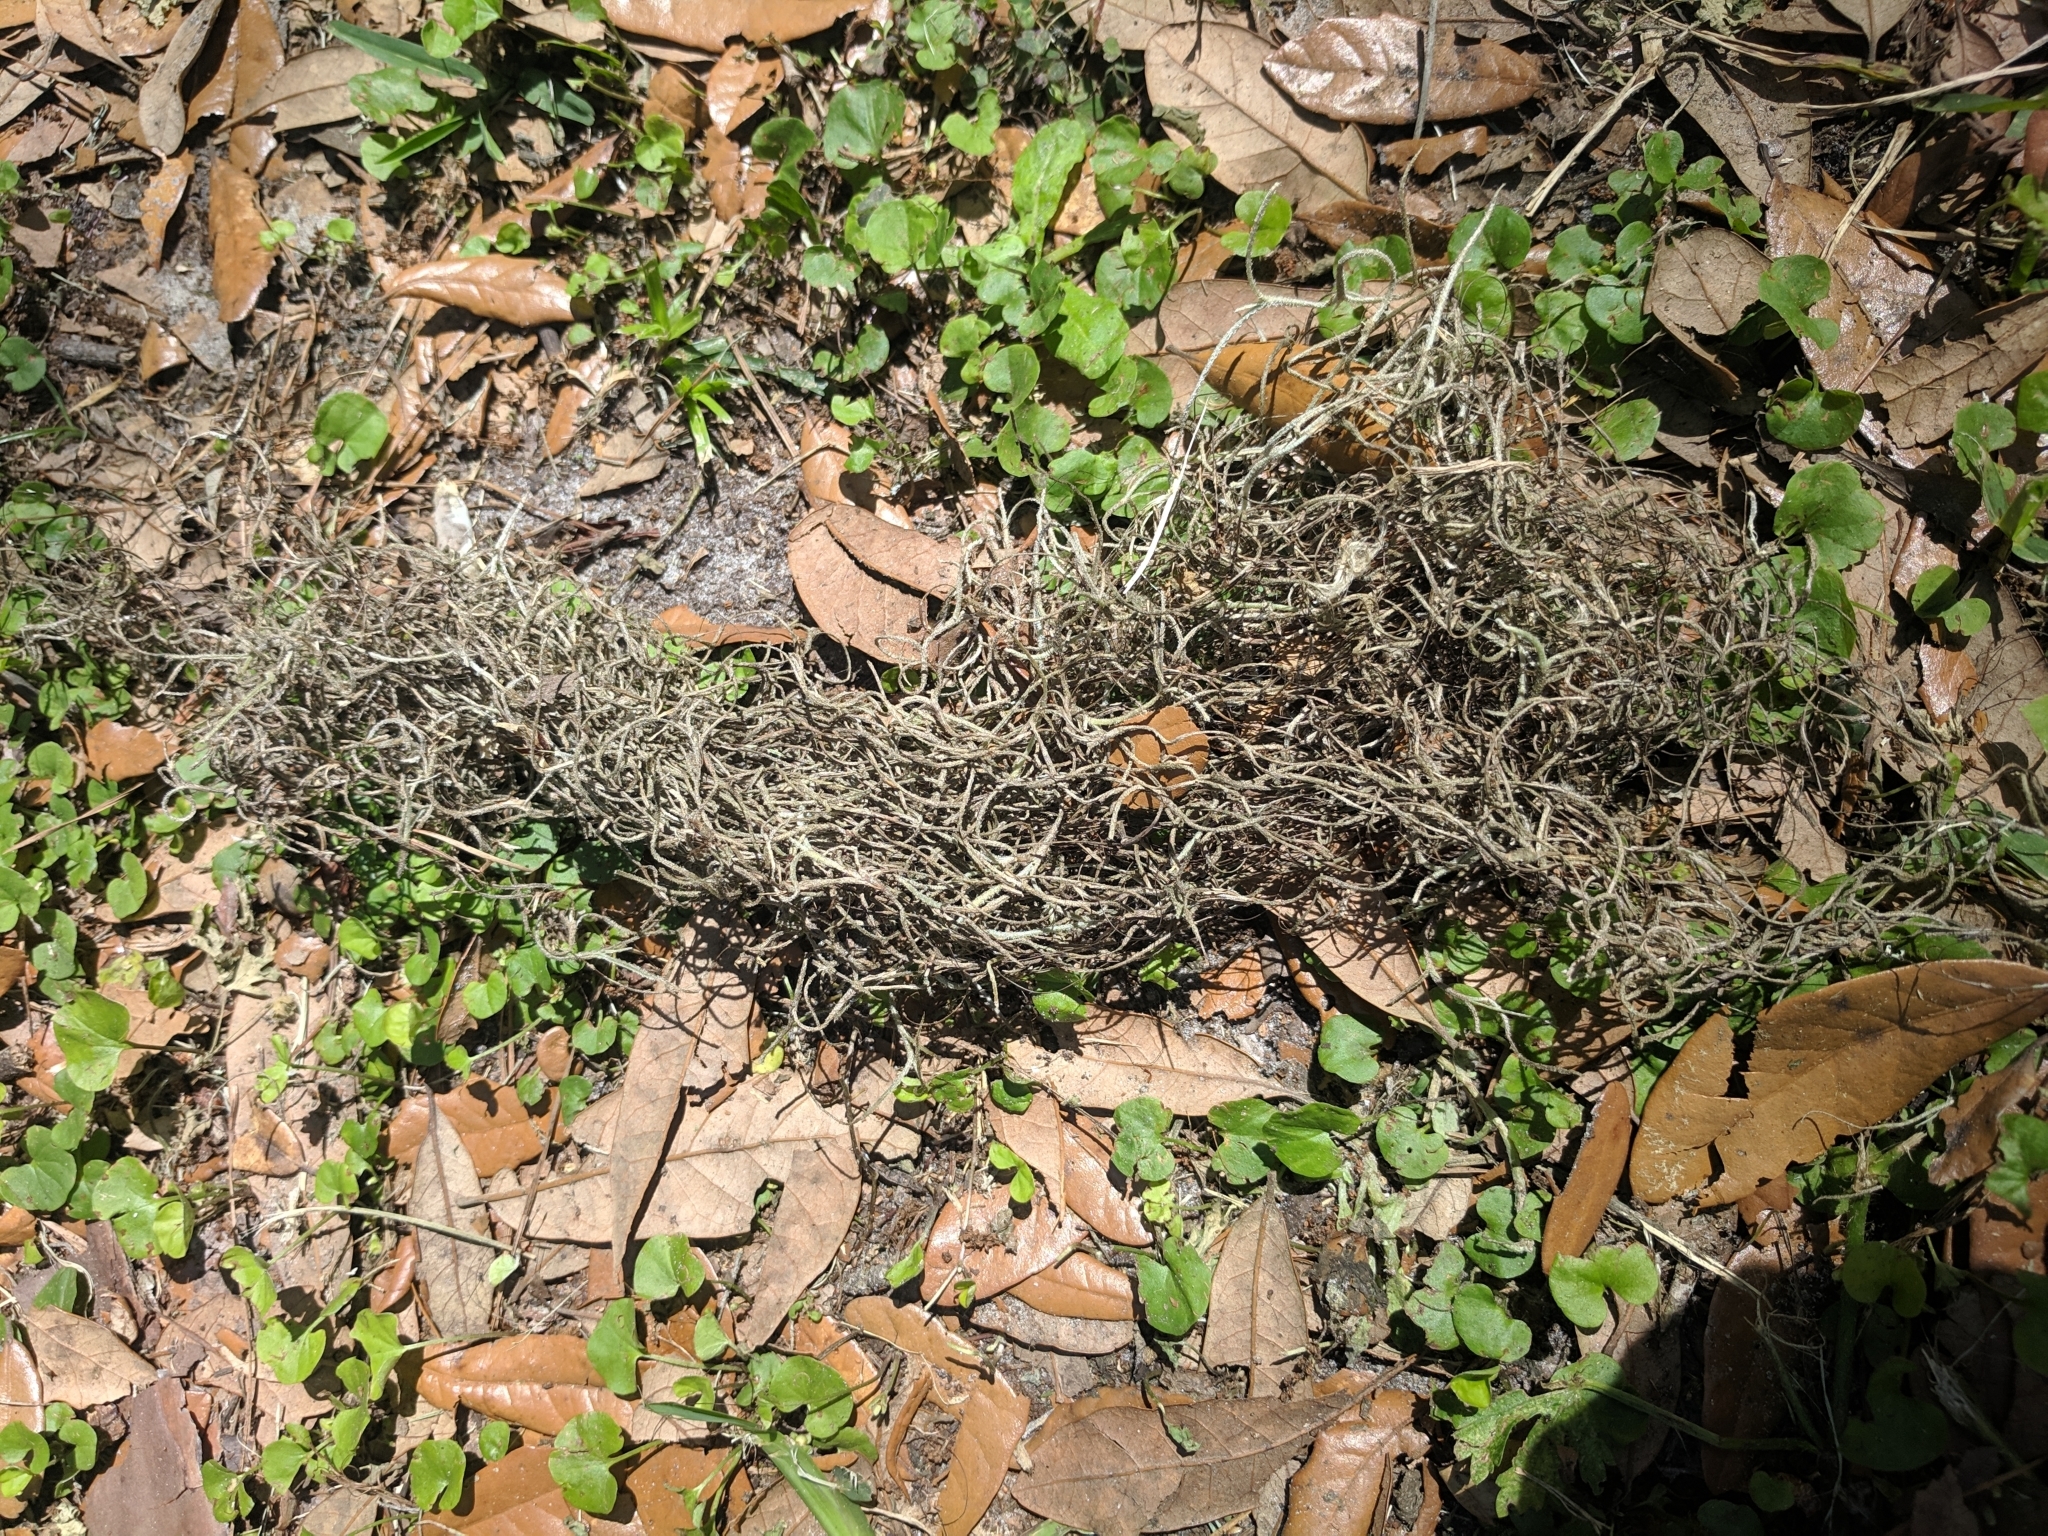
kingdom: Plantae
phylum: Tracheophyta
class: Liliopsida
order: Poales
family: Bromeliaceae
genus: Tillandsia
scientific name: Tillandsia usneoides
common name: Spanish moss
